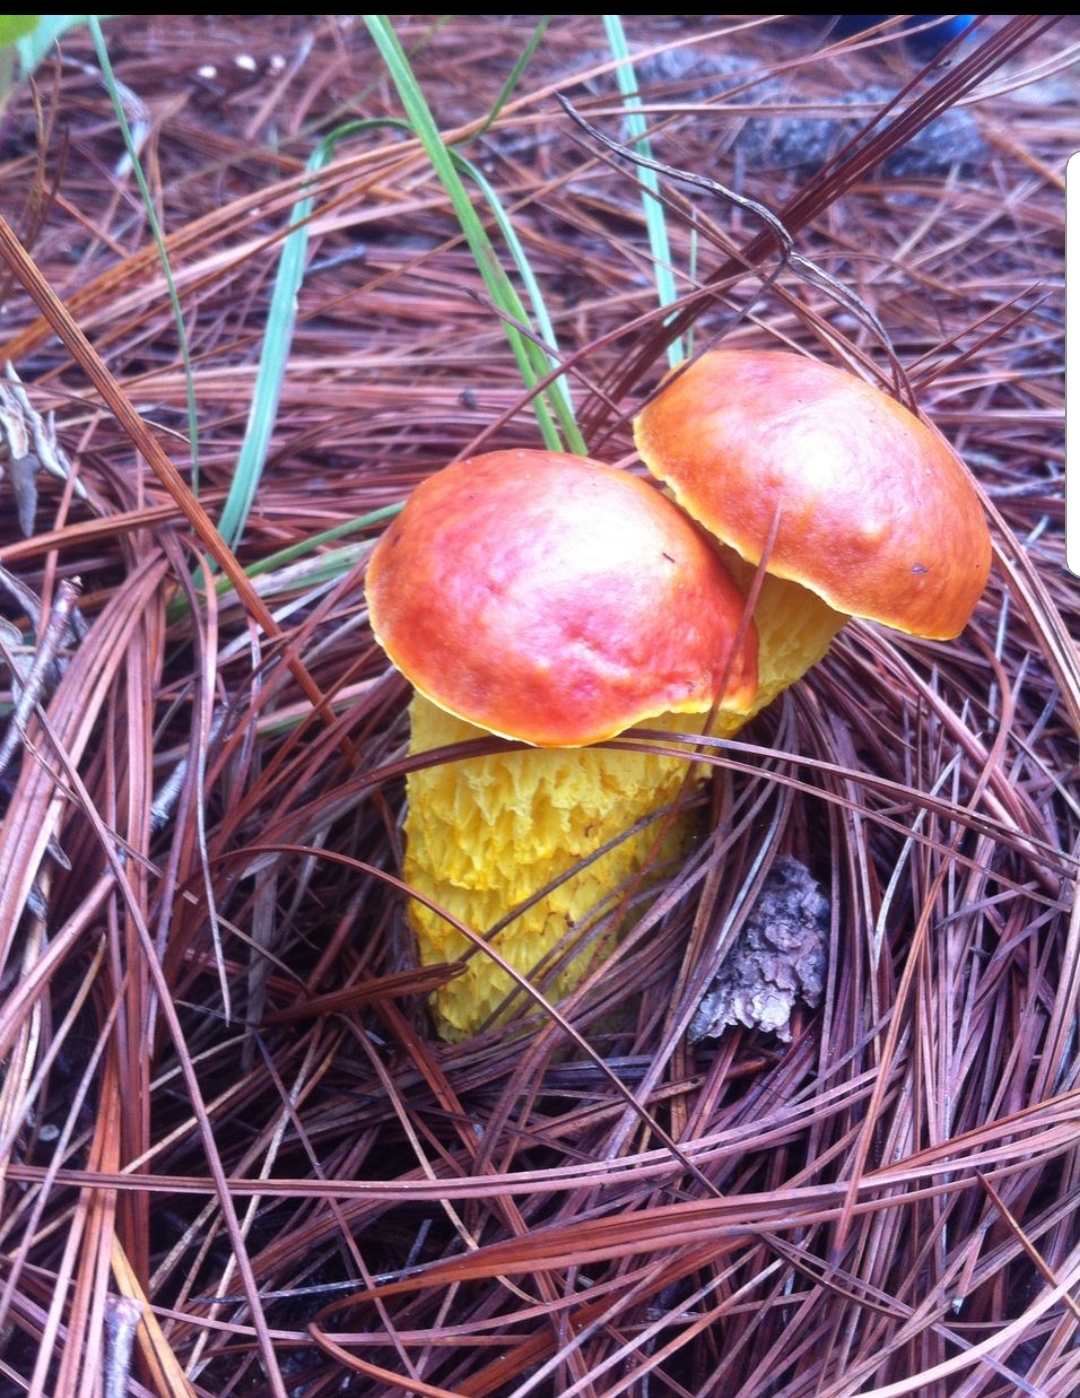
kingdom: Fungi
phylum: Basidiomycota
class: Agaricomycetes
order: Boletales
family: Boletaceae
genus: Aureoboletus
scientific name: Aureoboletus betula
